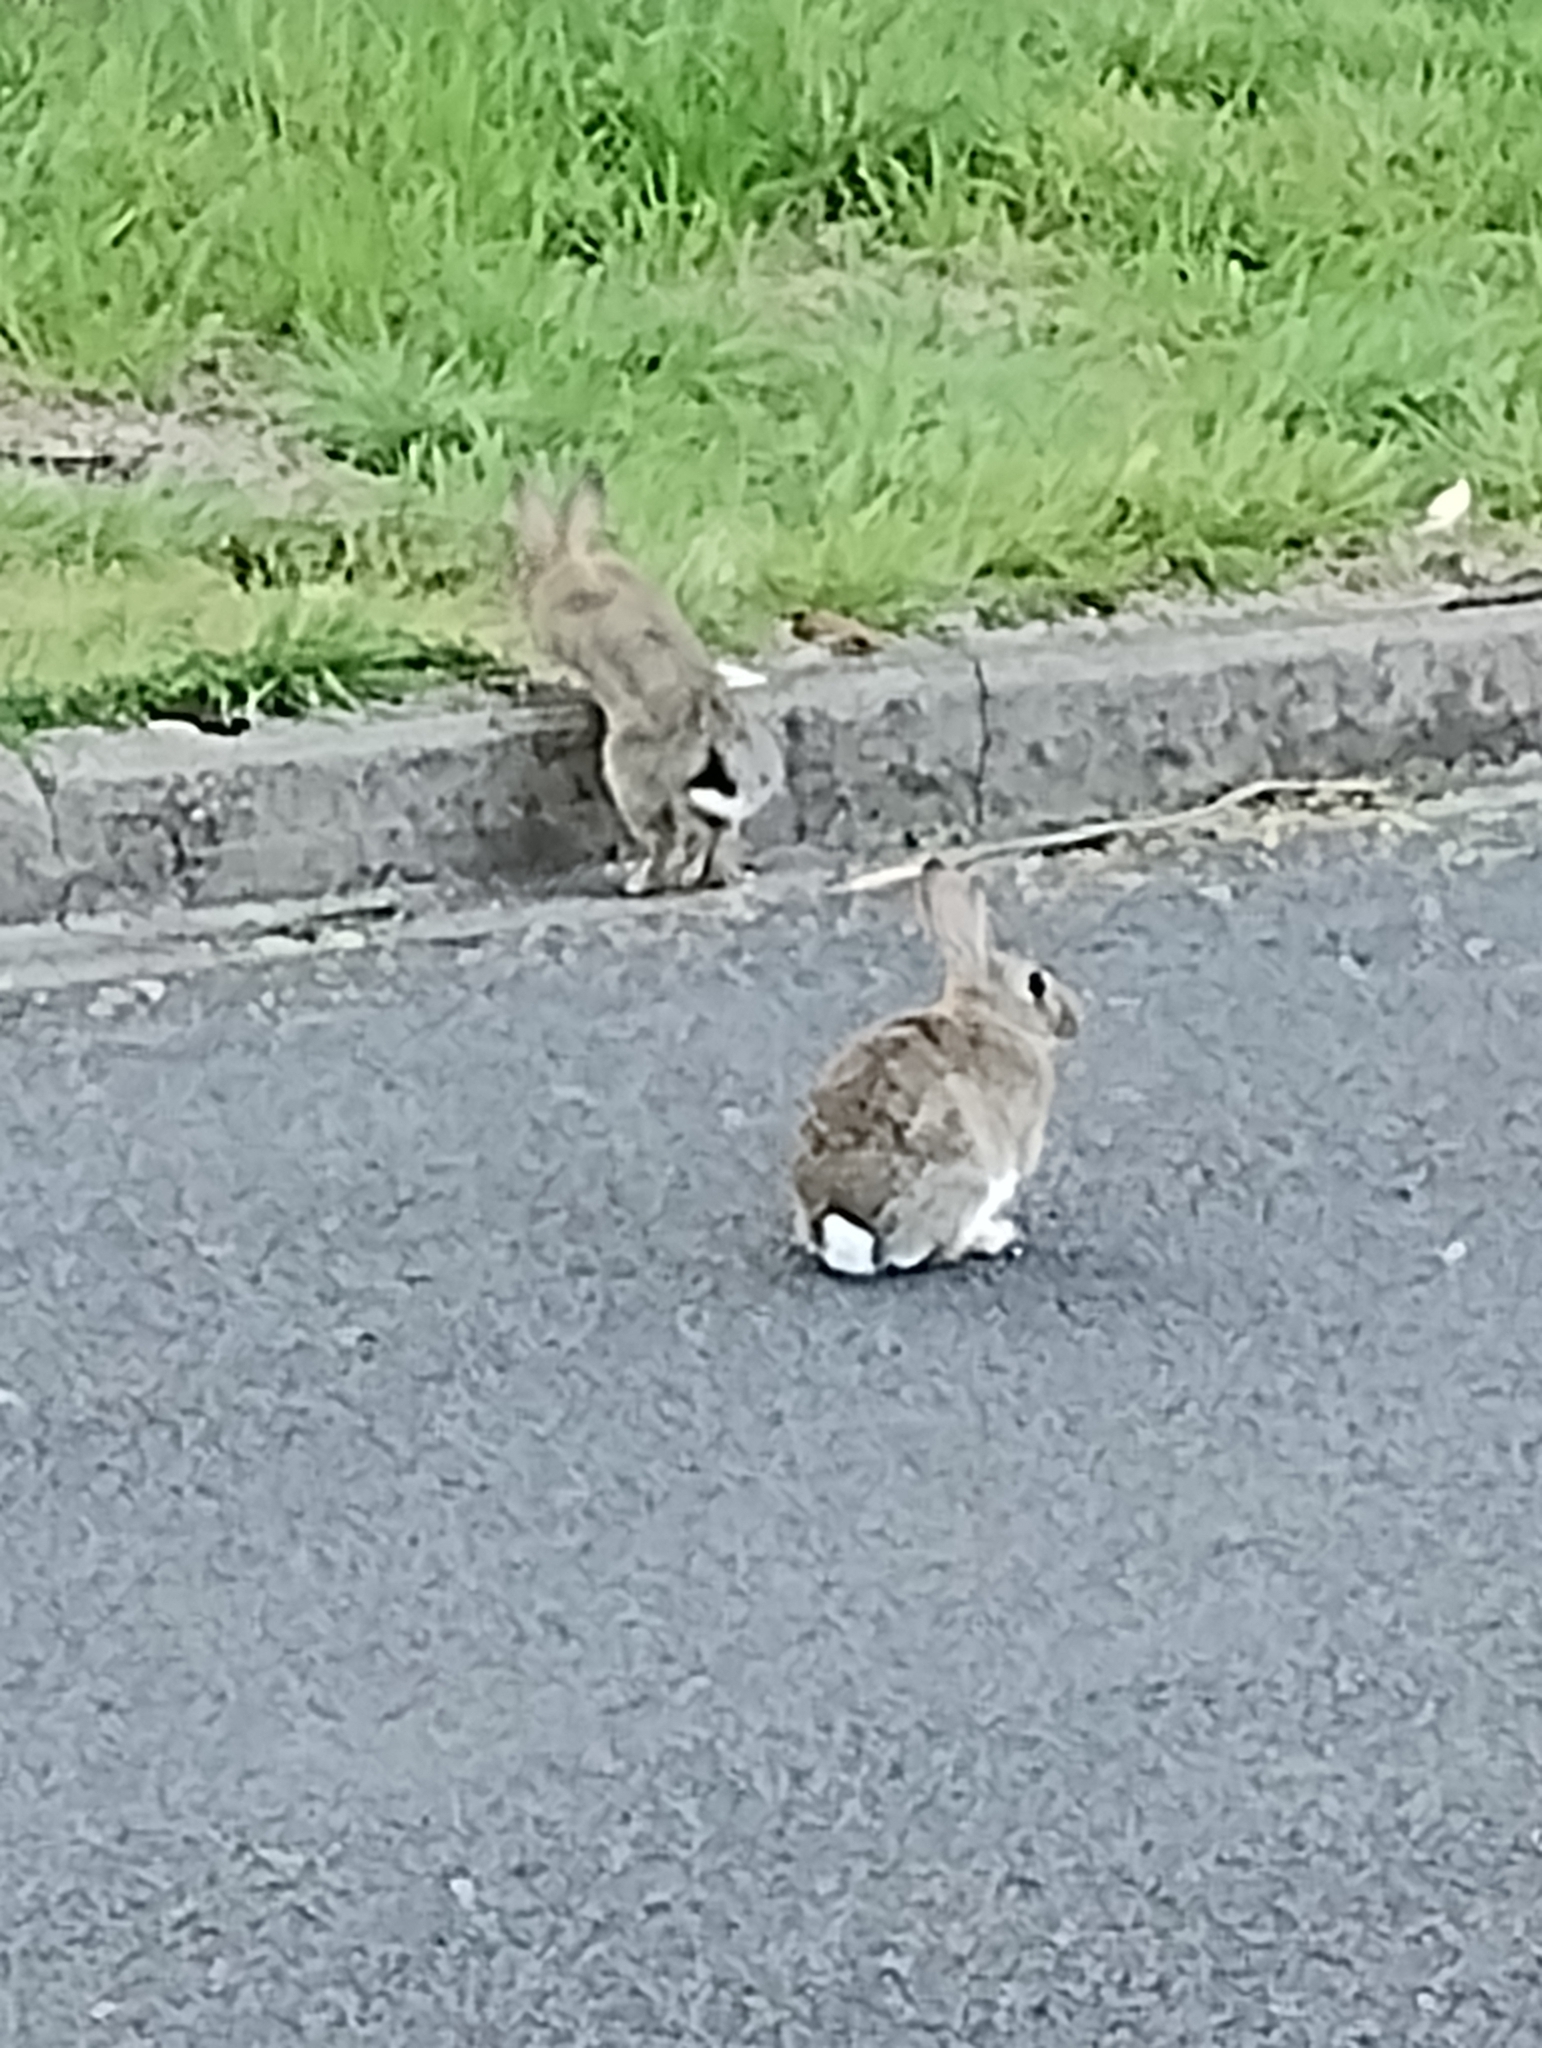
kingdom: Animalia
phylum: Chordata
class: Mammalia
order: Lagomorpha
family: Leporidae
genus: Oryctolagus
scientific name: Oryctolagus cuniculus
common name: European rabbit
